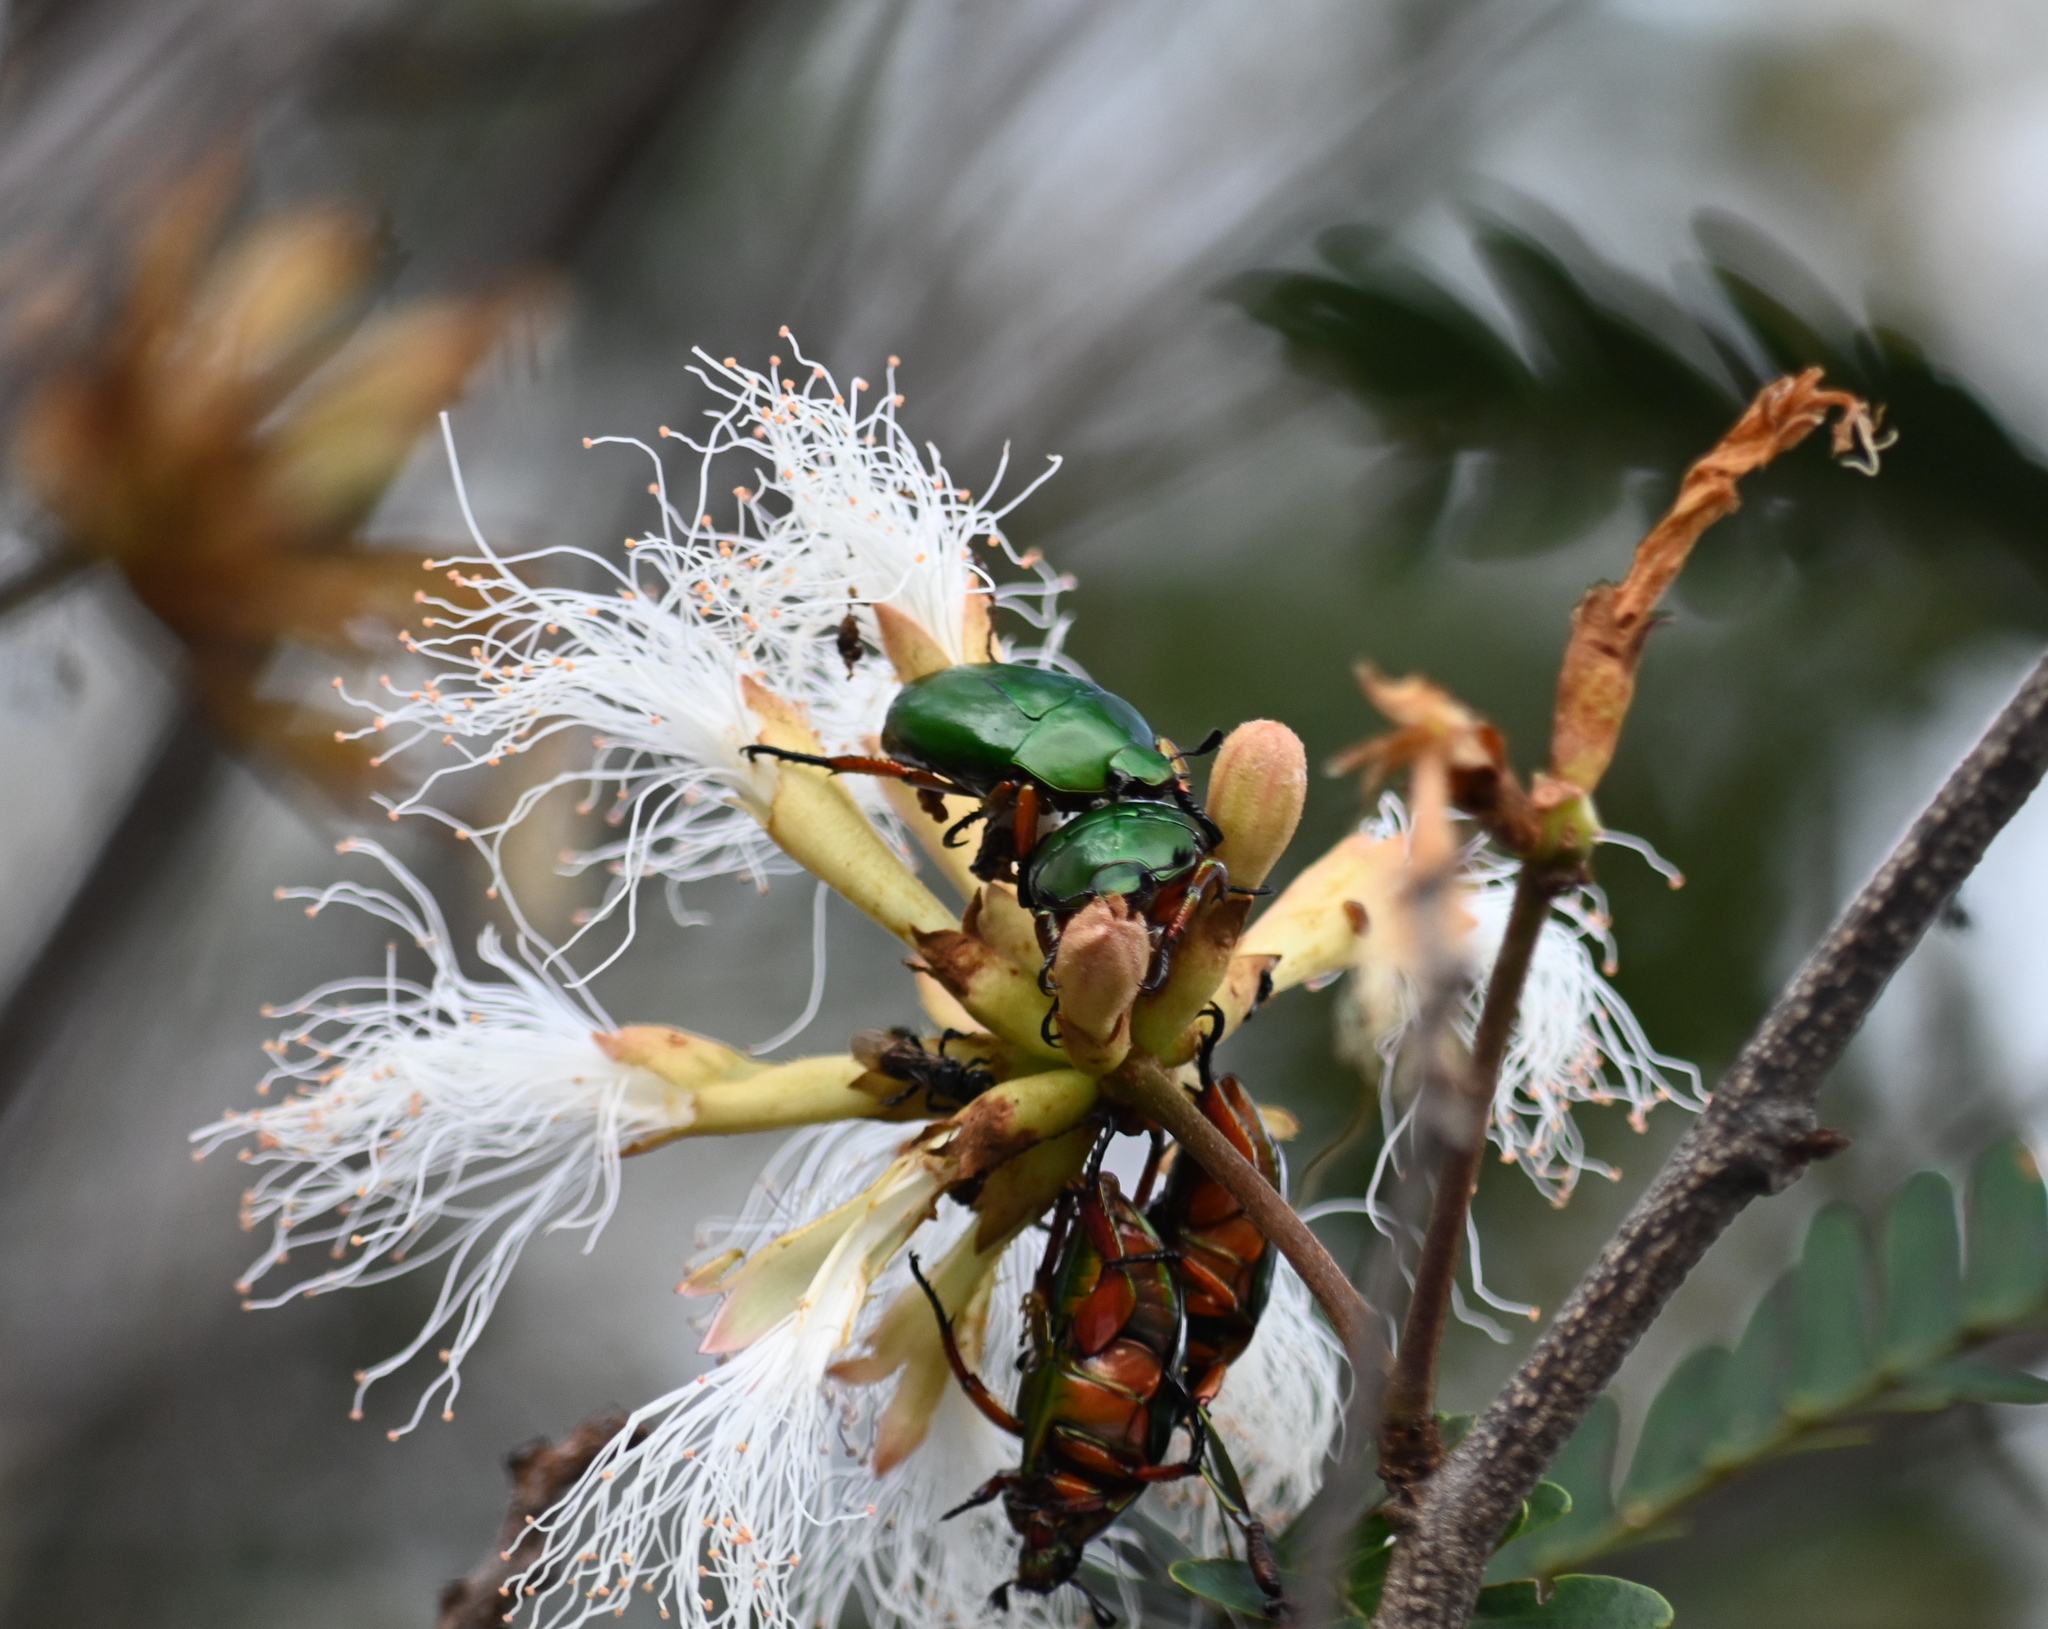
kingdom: Animalia
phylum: Arthropoda
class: Insecta
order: Coleoptera
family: Scarabaeidae
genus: Macraspis
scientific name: Macraspis pseudochrysis
